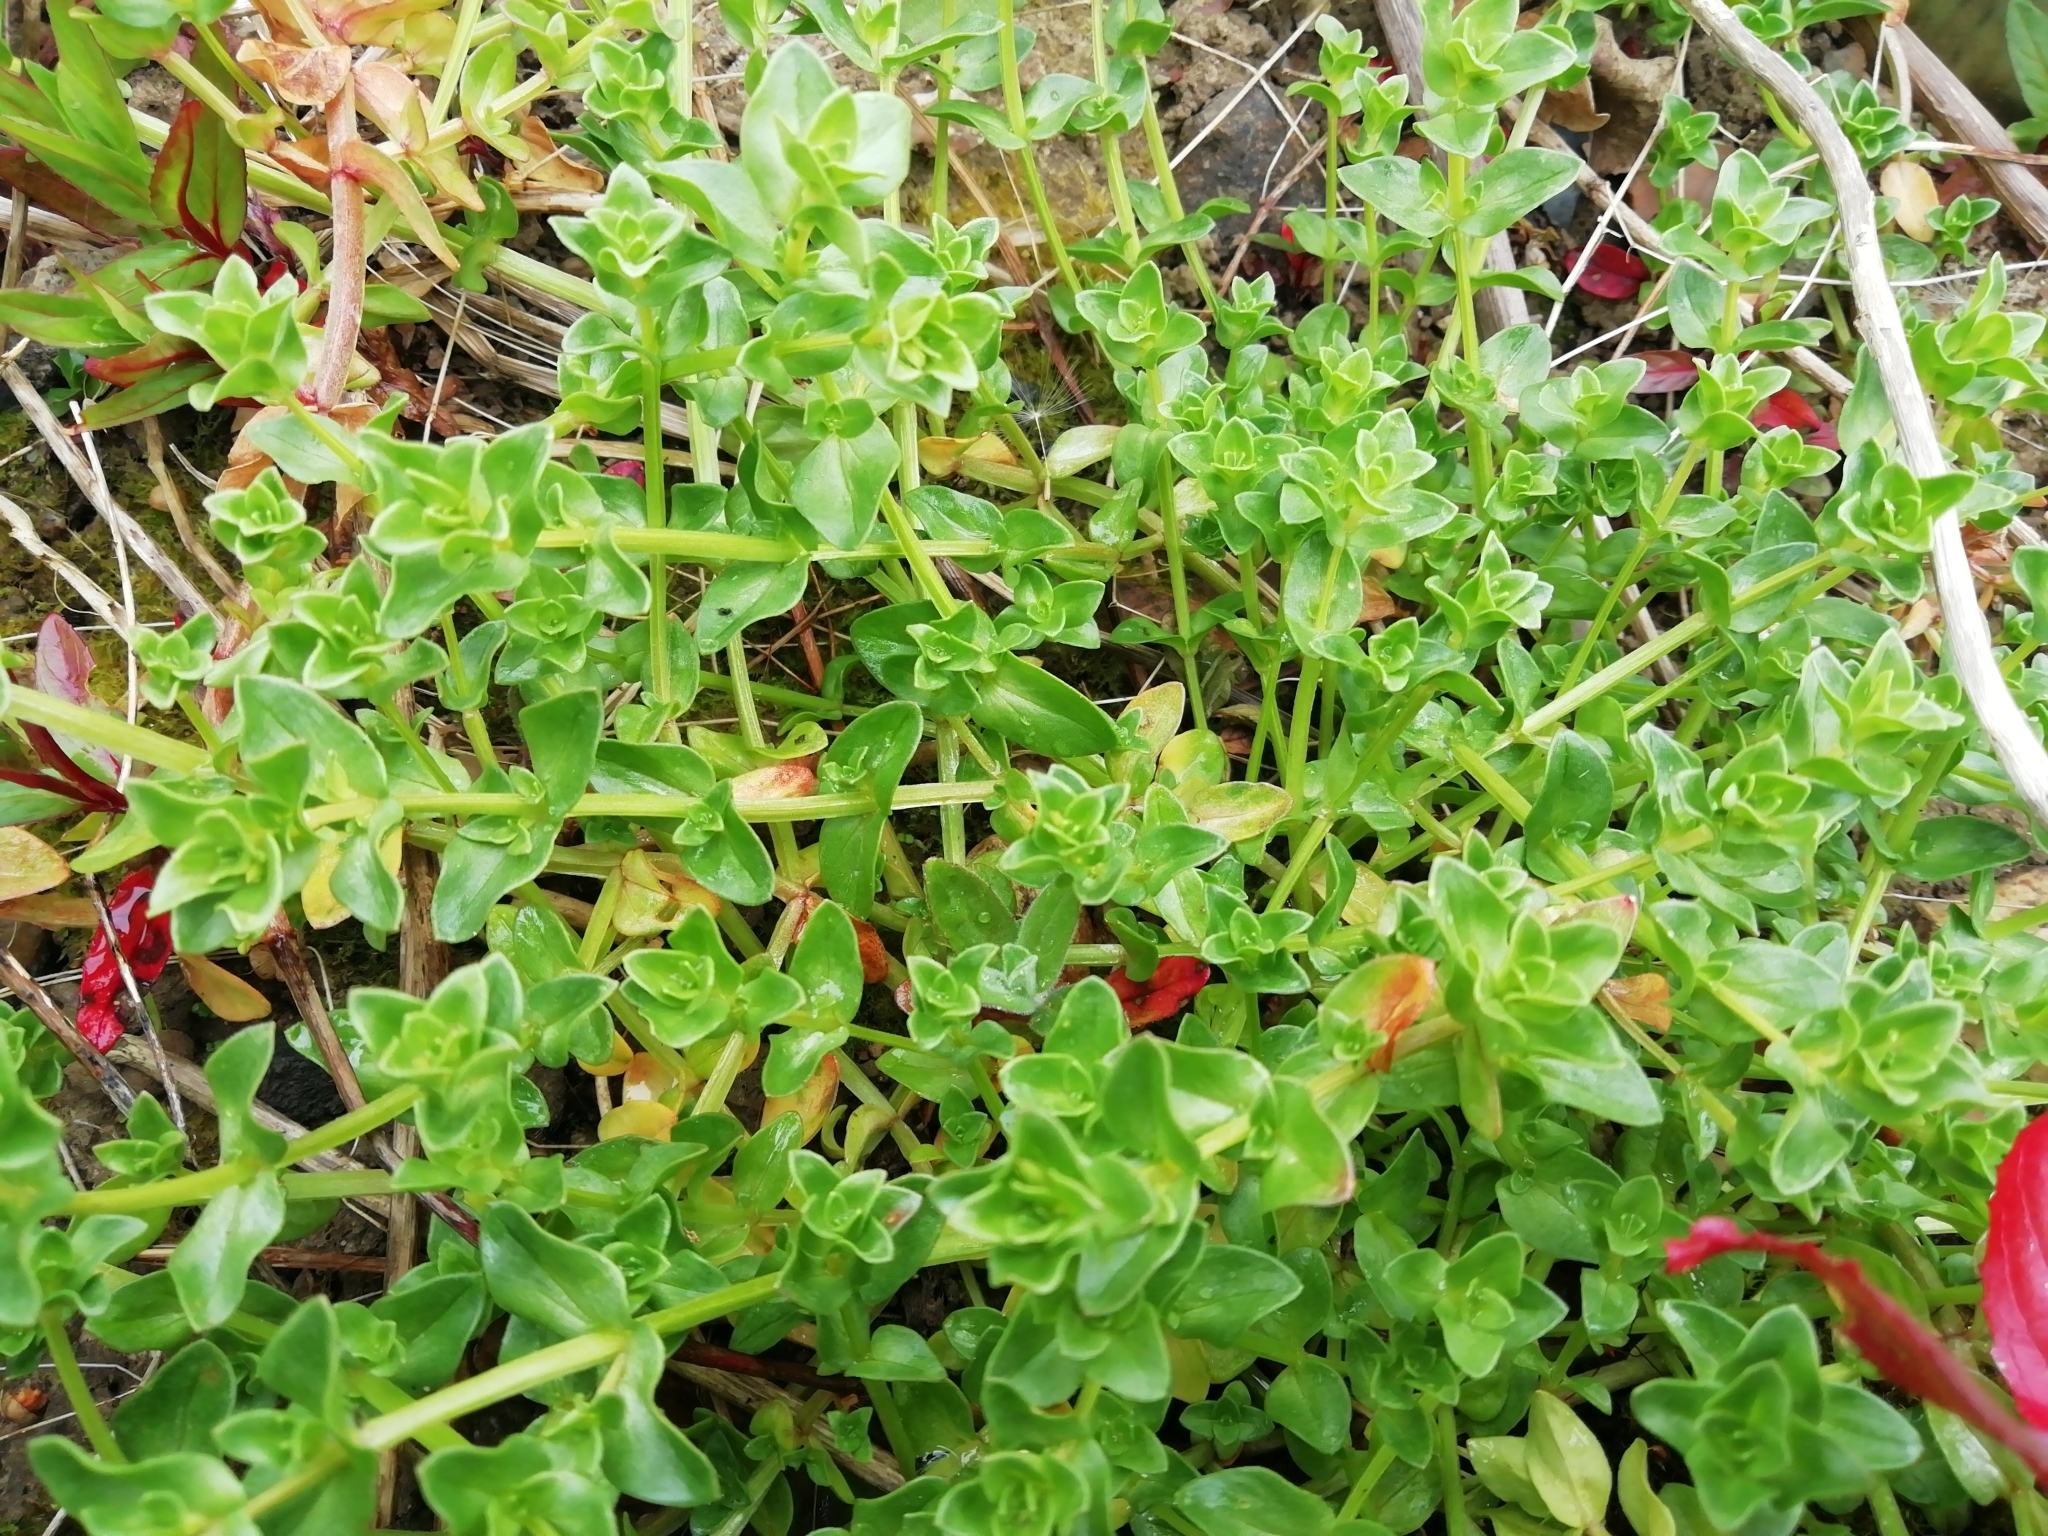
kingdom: Plantae
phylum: Tracheophyta
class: Magnoliopsida
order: Ericales
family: Primulaceae
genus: Lysimachia
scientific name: Lysimachia arvensis
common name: Scarlet pimpernel
